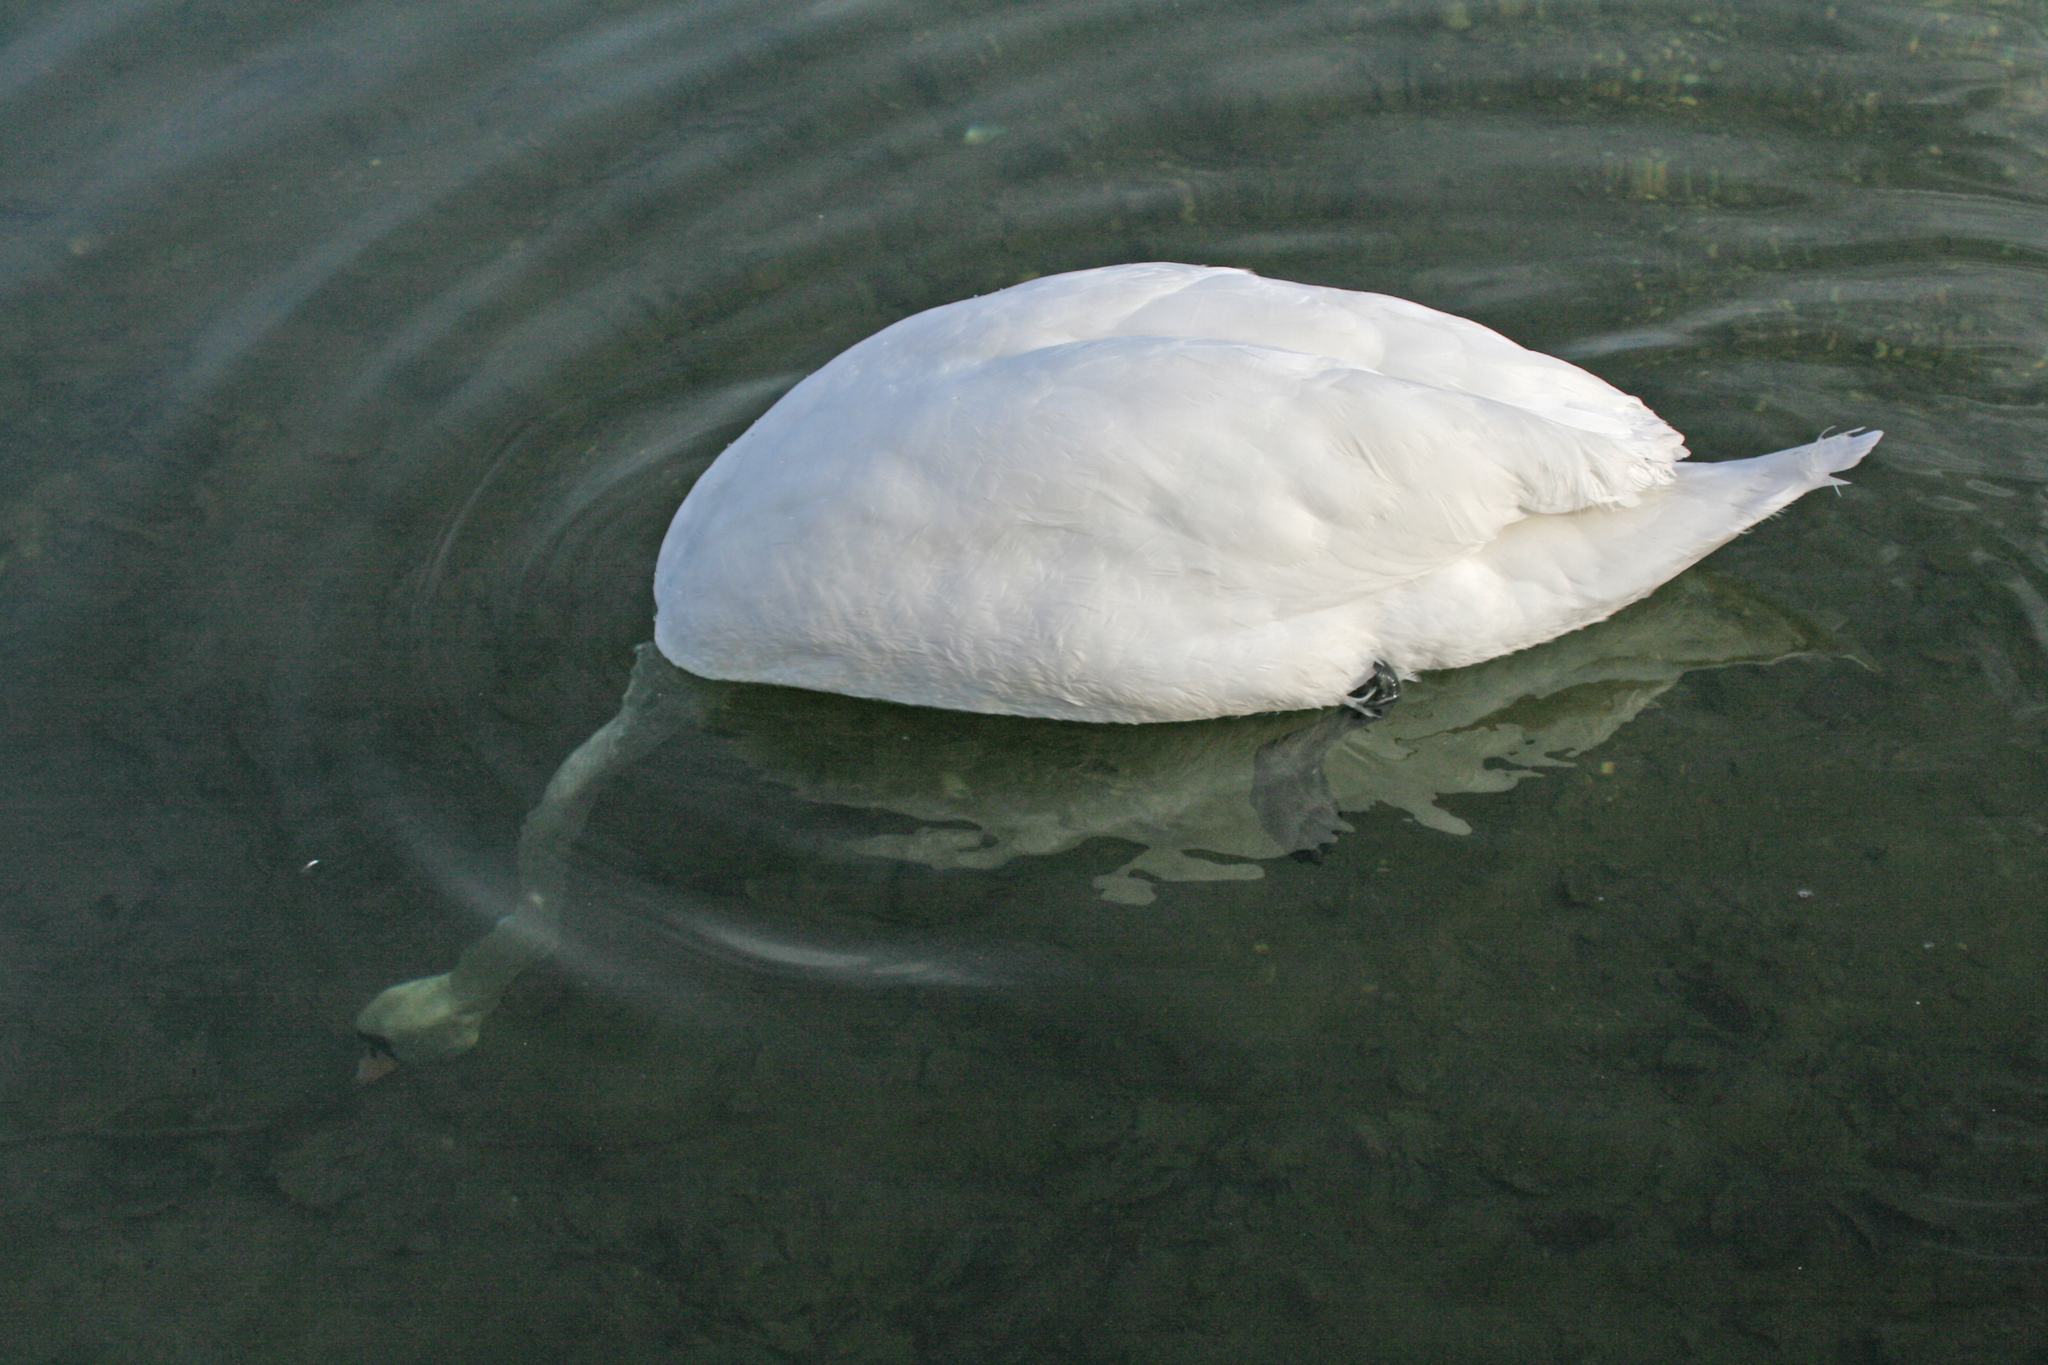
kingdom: Animalia
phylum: Chordata
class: Aves
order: Anseriformes
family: Anatidae
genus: Cygnus
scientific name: Cygnus olor
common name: Mute swan
